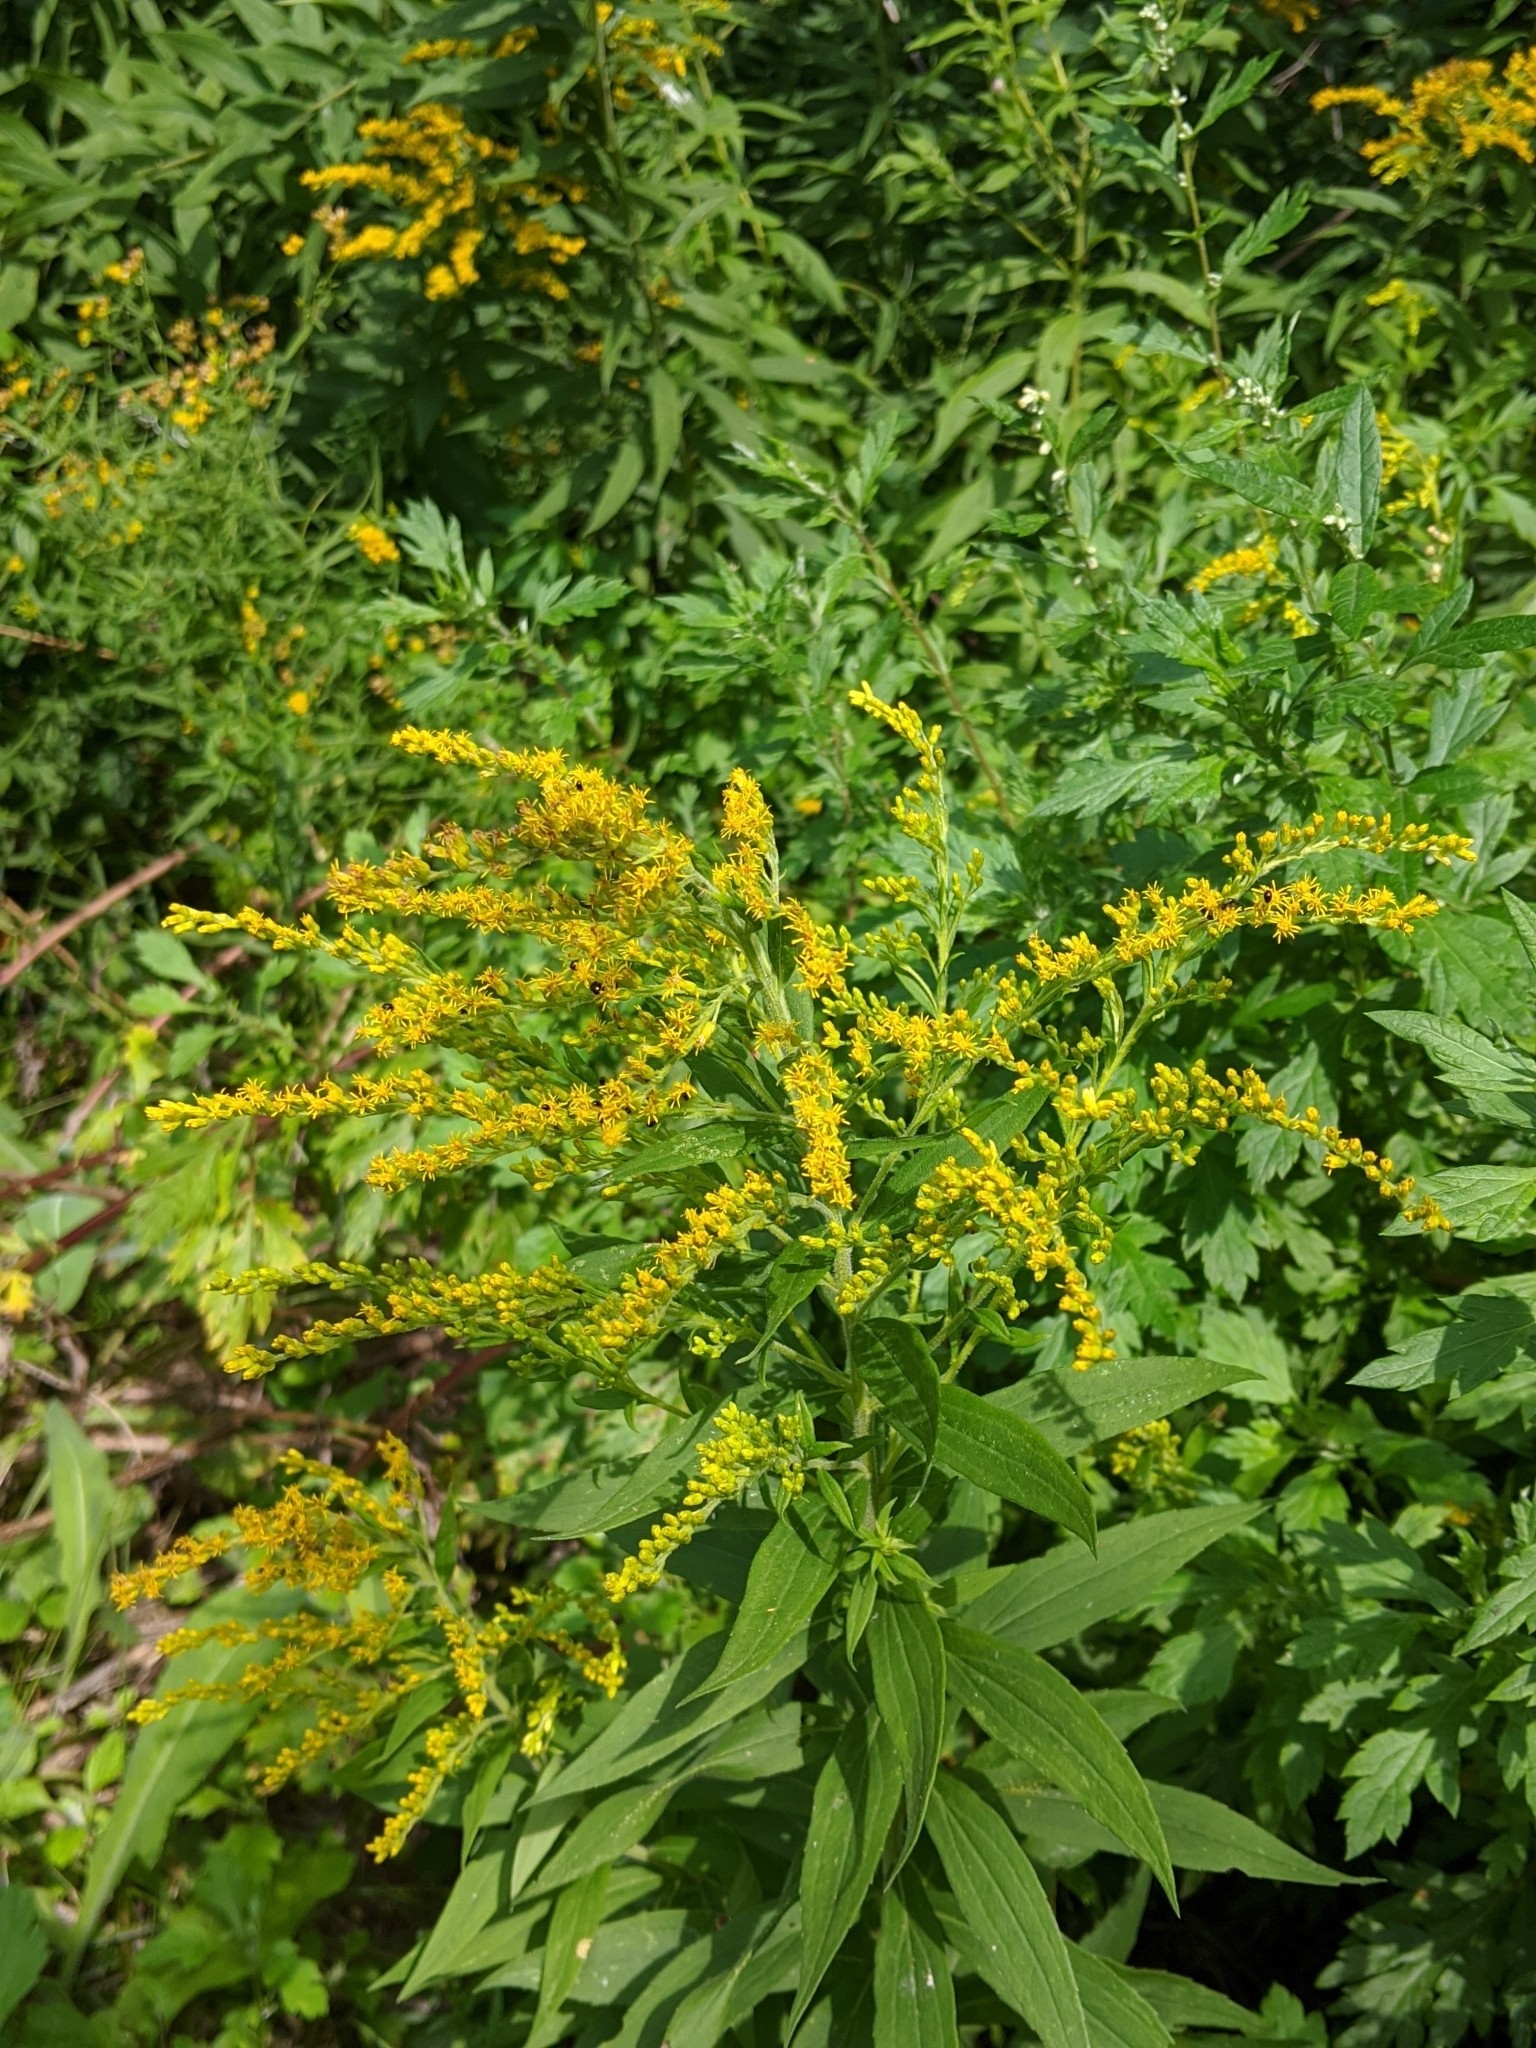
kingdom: Plantae
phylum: Tracheophyta
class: Magnoliopsida
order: Asterales
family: Asteraceae
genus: Solidago
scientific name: Solidago altissima
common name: Late goldenrod
